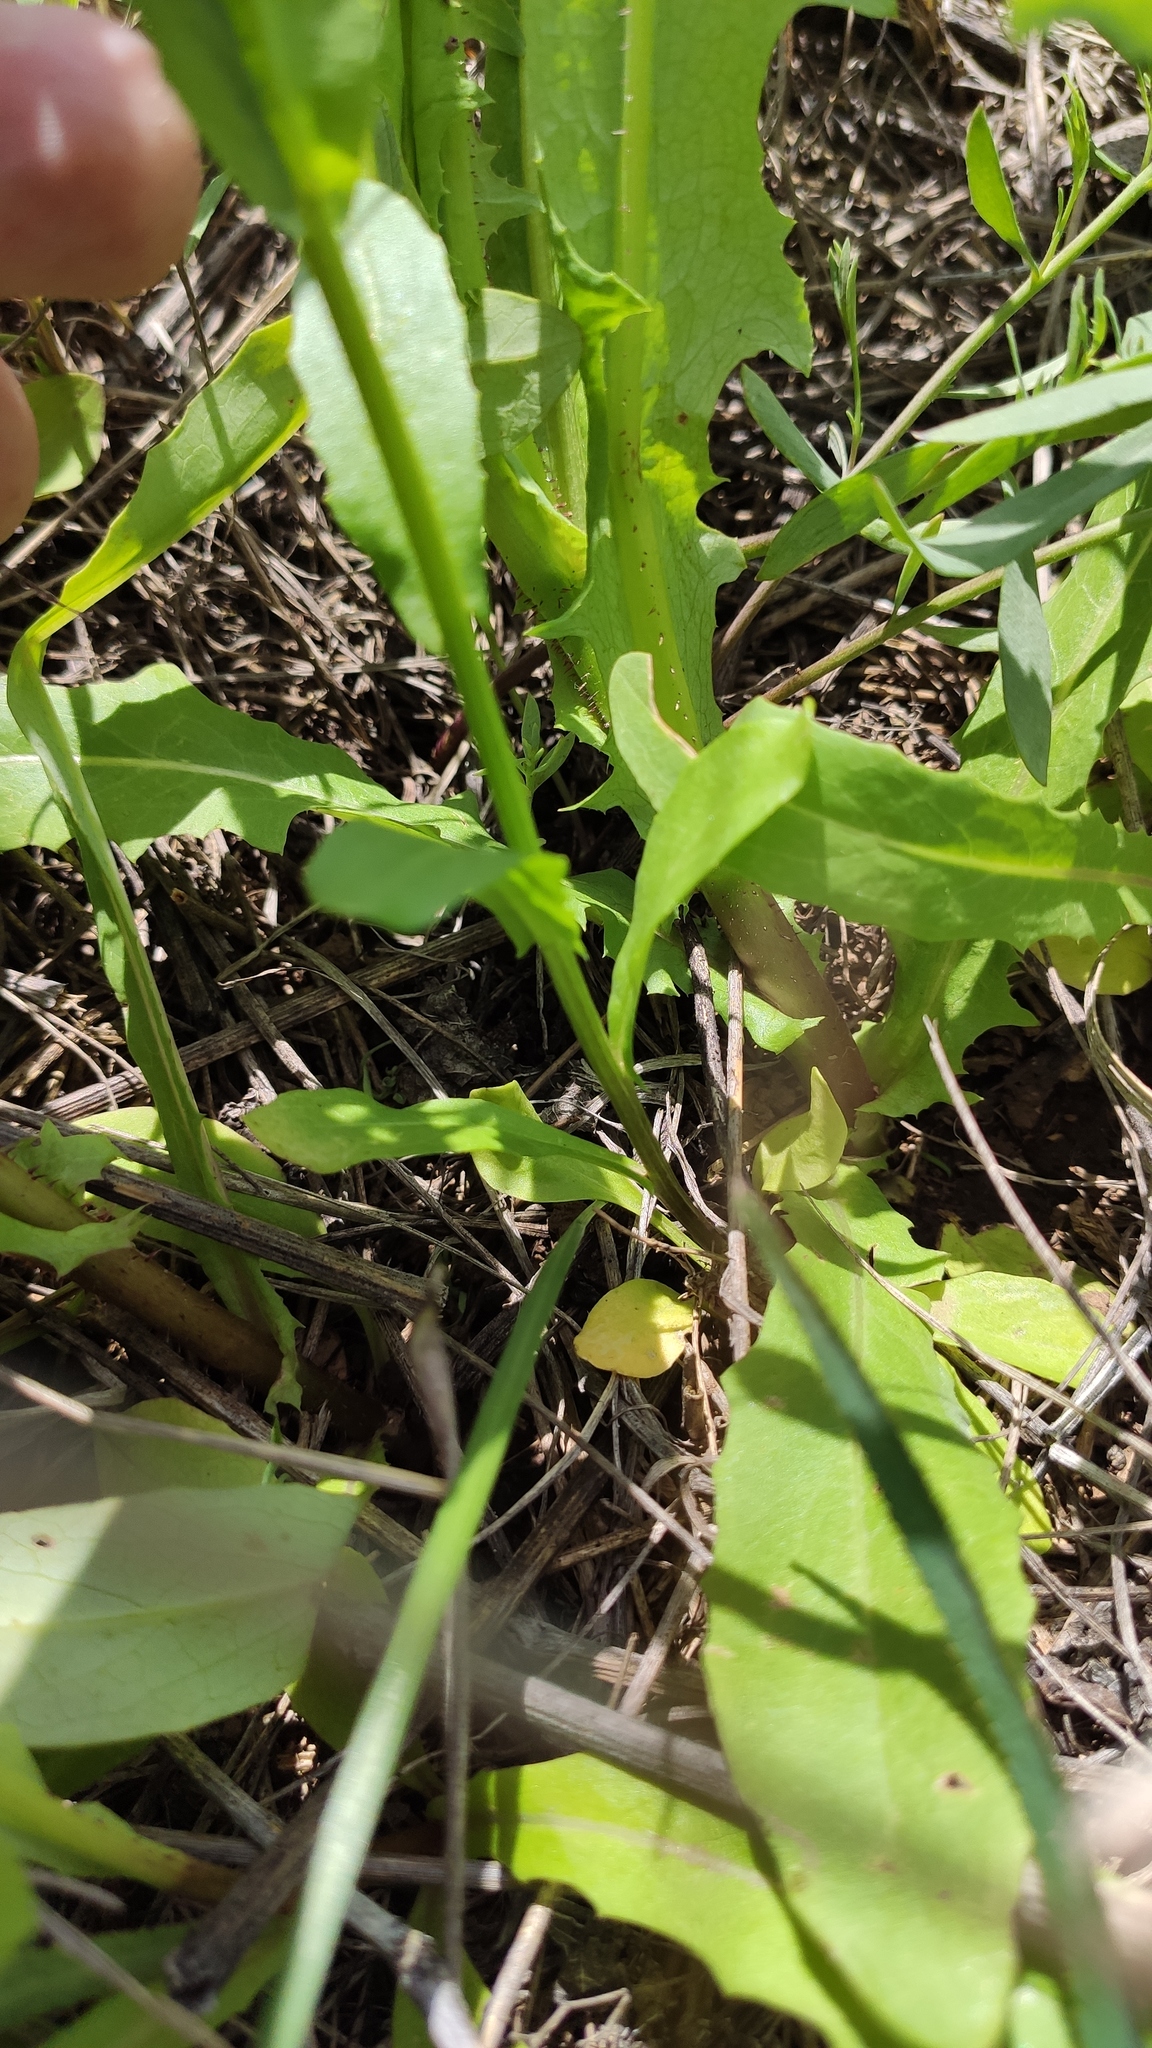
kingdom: Plantae
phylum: Tracheophyta
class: Magnoliopsida
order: Brassicales
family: Brassicaceae
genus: Thlaspi
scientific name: Thlaspi arvense
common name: Field pennycress
